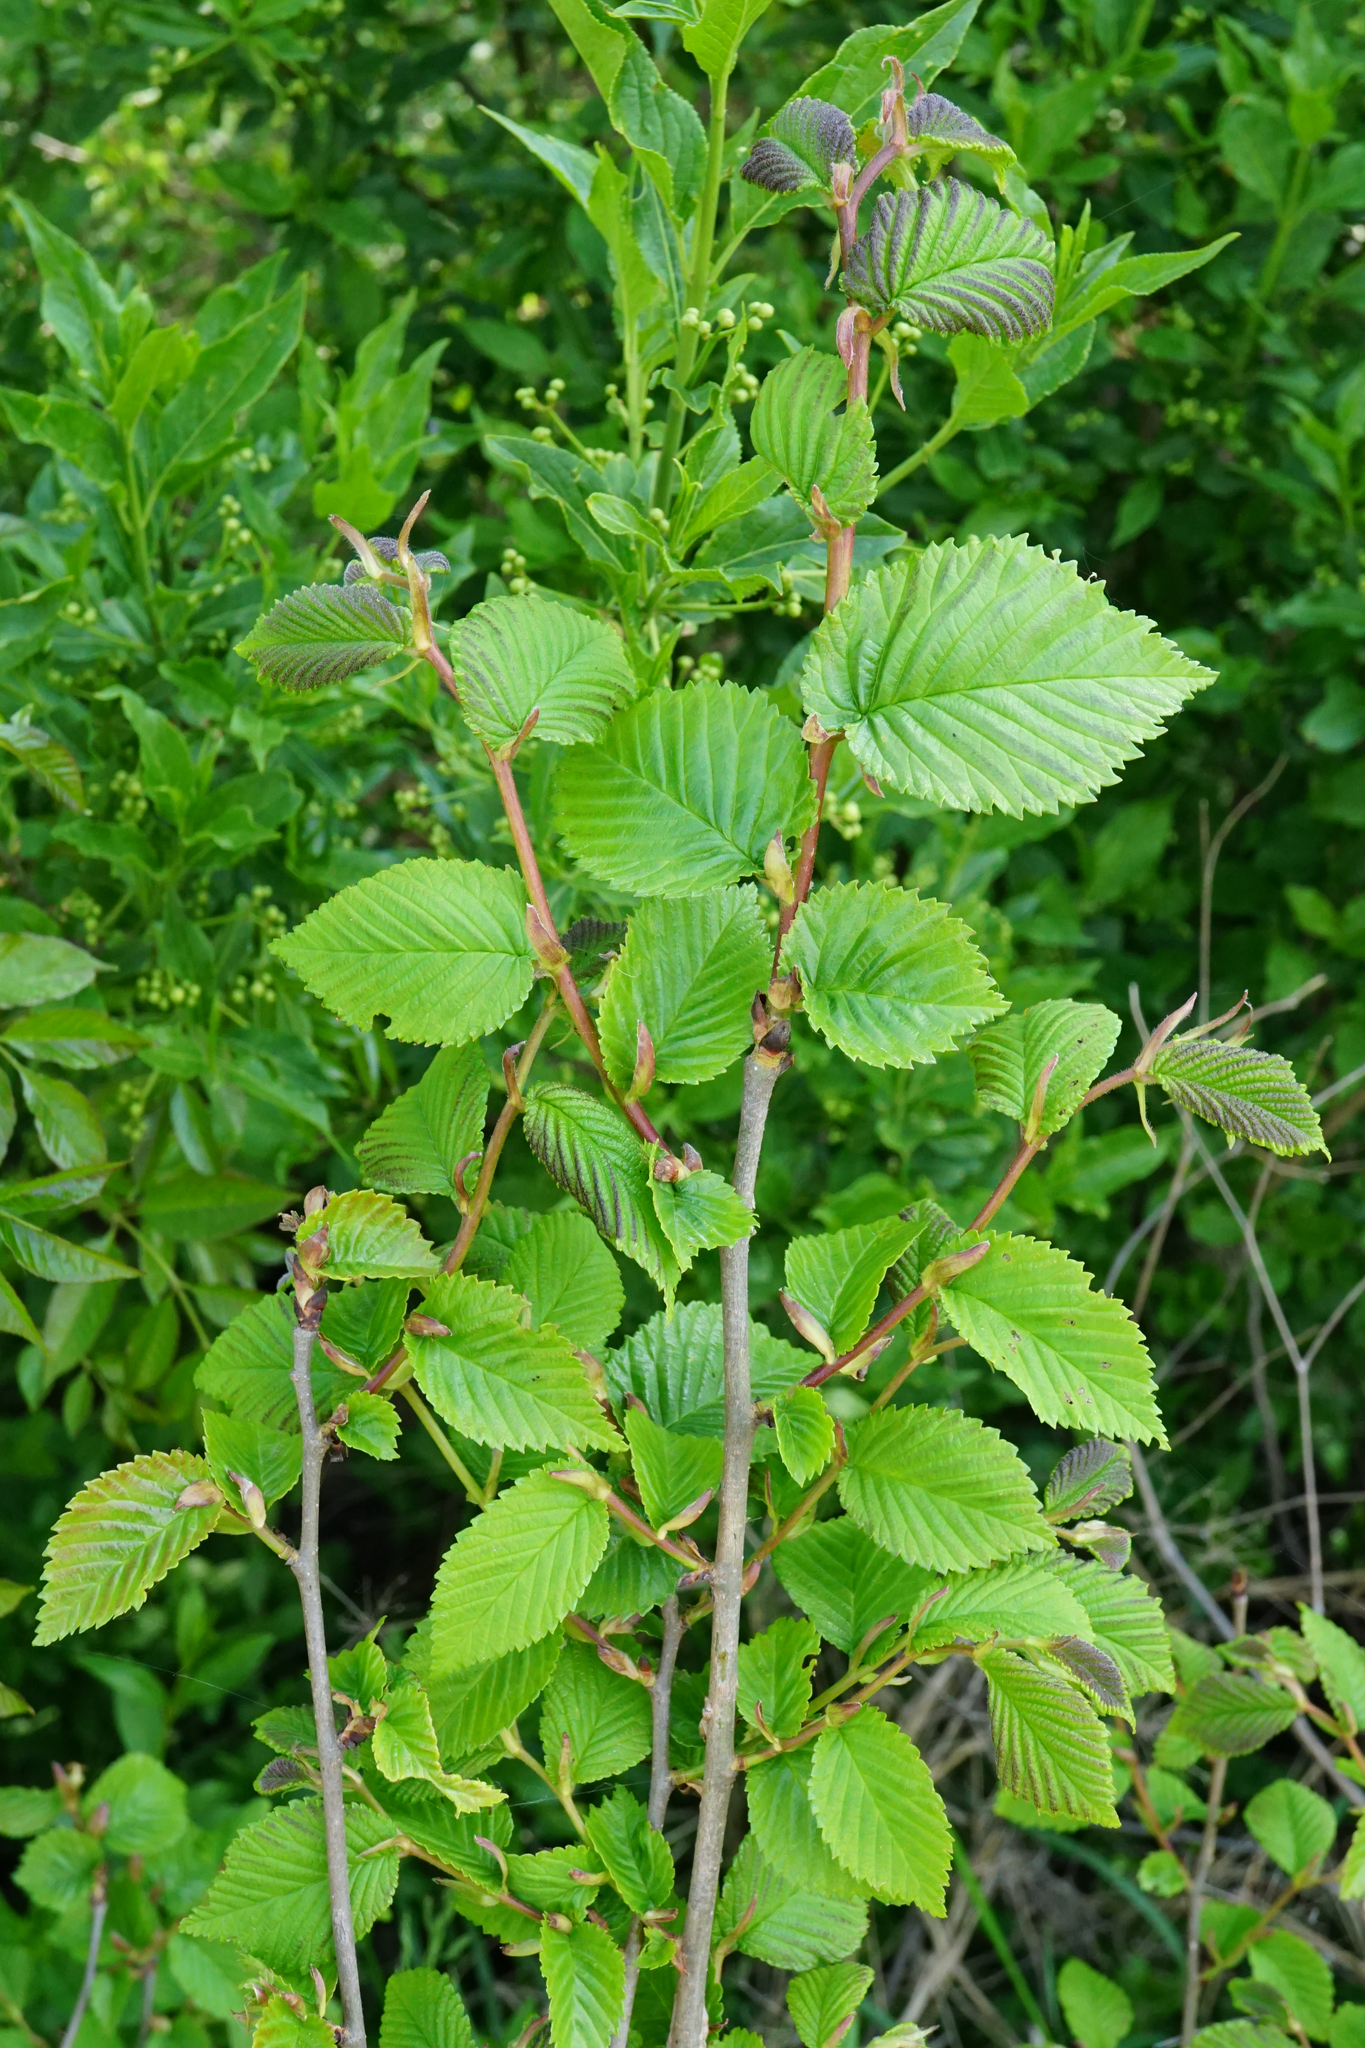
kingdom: Plantae
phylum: Tracheophyta
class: Magnoliopsida
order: Rosales
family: Ulmaceae
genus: Ulmus
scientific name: Ulmus minor
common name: Small-leaved elm
